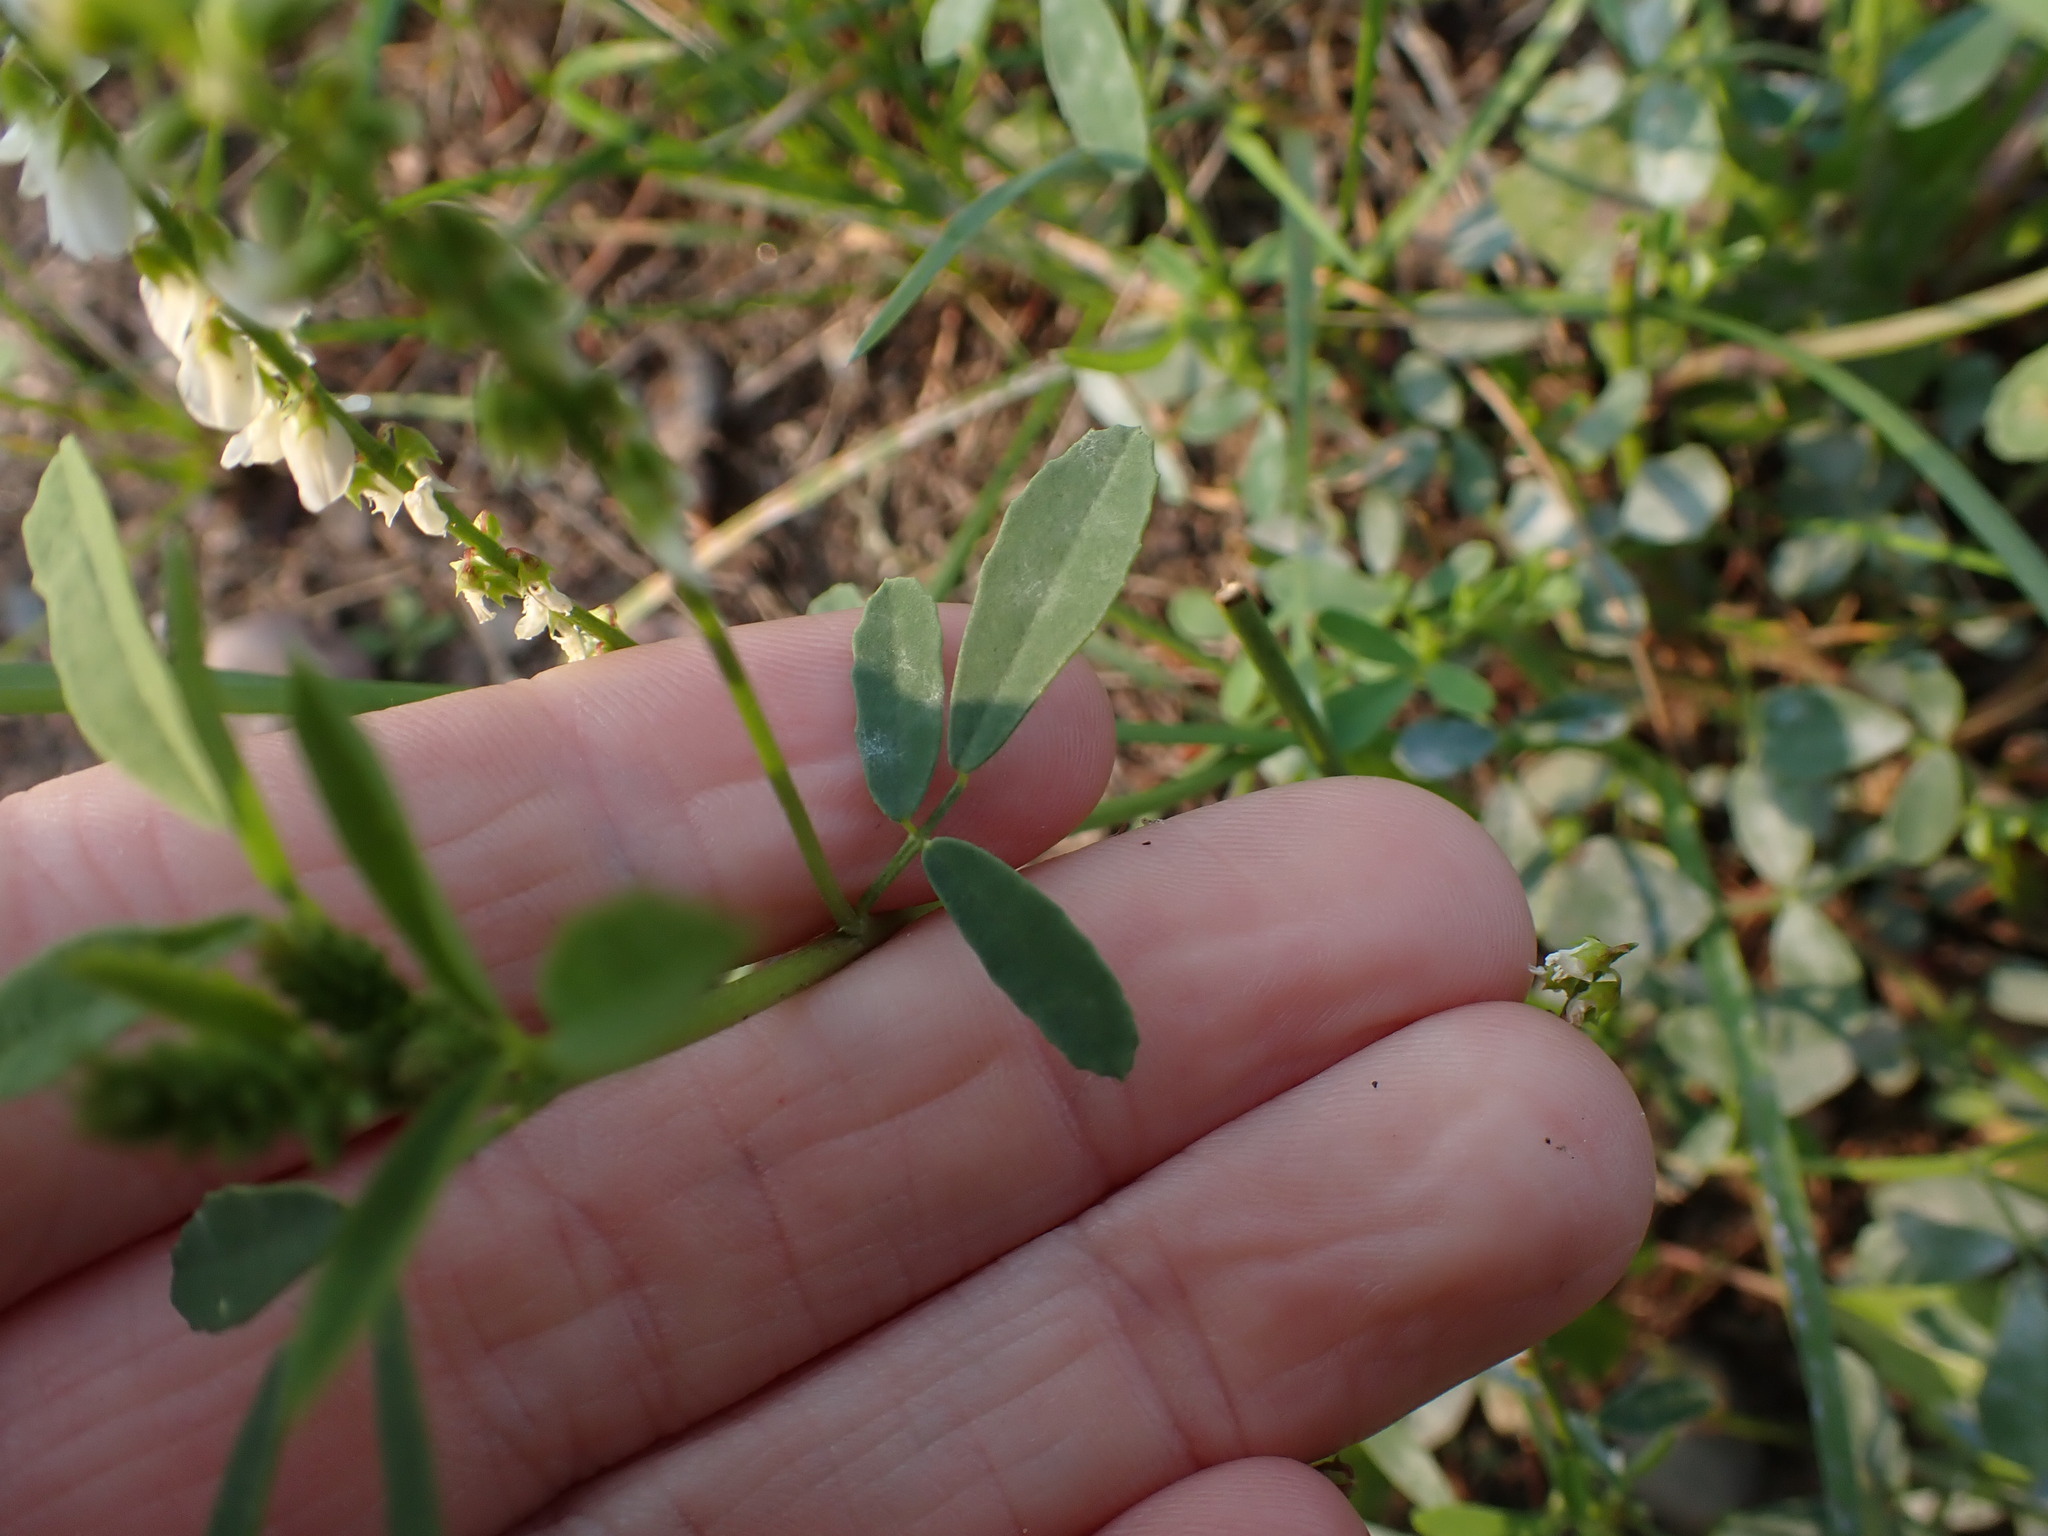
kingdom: Plantae
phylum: Tracheophyta
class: Magnoliopsida
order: Fabales
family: Fabaceae
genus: Melilotus
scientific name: Melilotus albus
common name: White melilot
